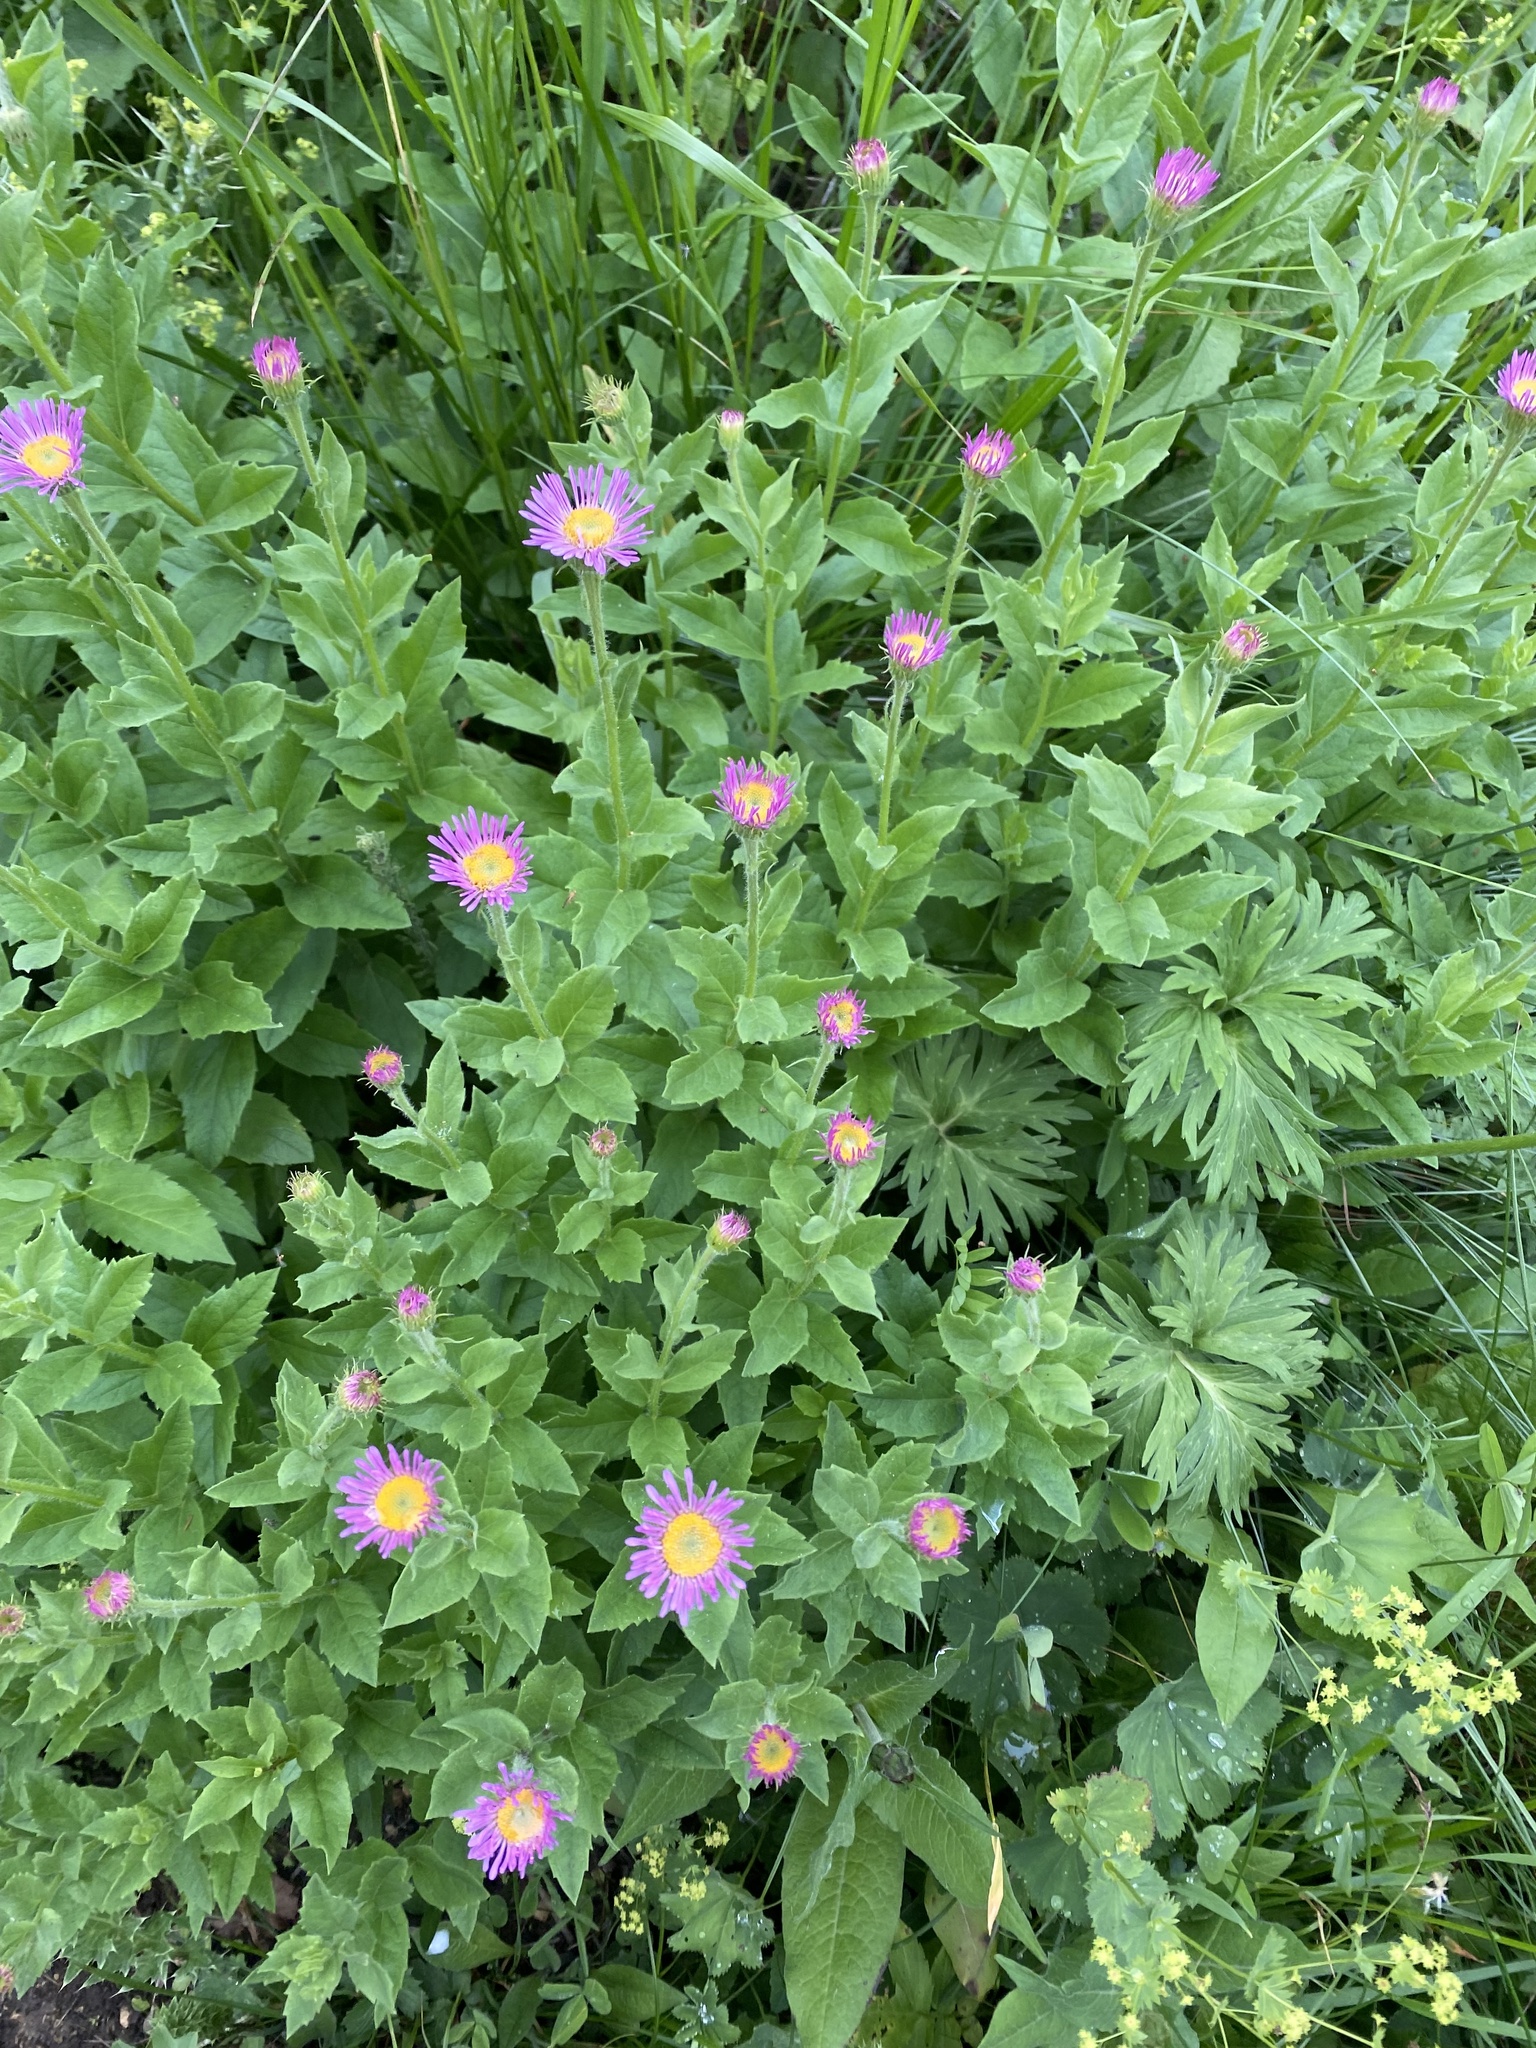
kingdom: Plantae
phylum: Tracheophyta
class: Magnoliopsida
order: Asterales
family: Asteraceae
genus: Kemulariella
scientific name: Kemulariella caucasica
